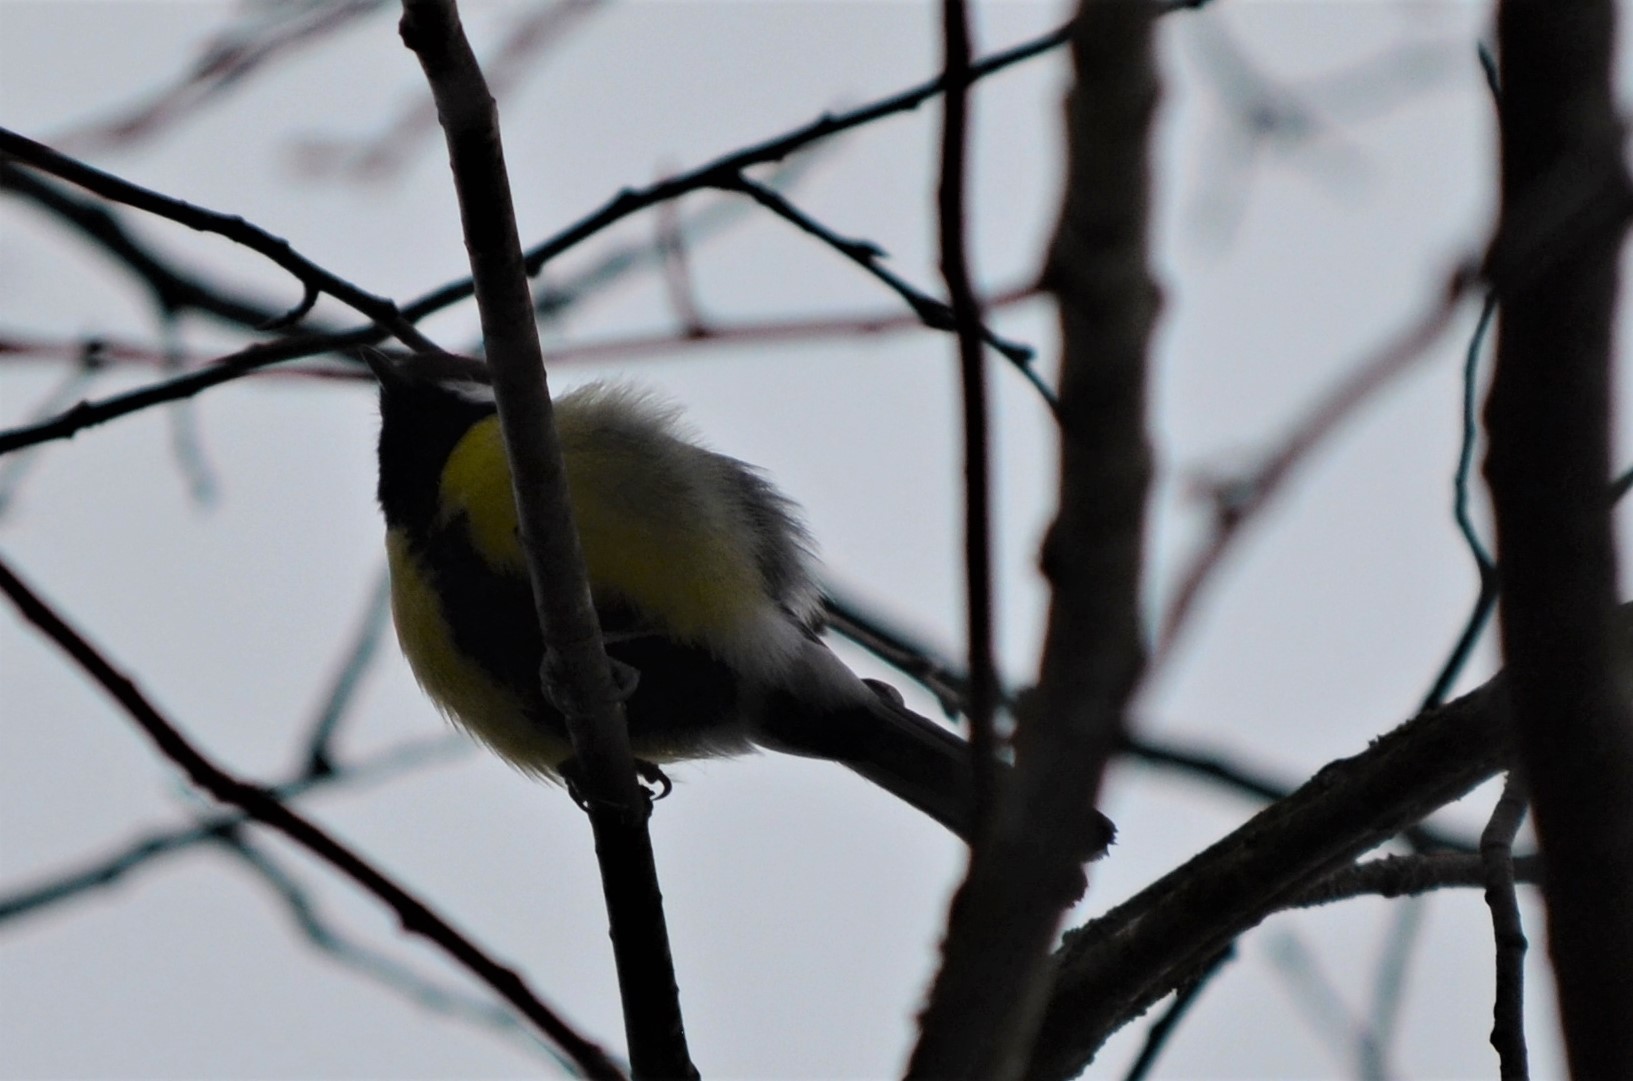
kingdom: Animalia
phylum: Chordata
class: Aves
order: Passeriformes
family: Paridae
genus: Parus
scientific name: Parus major
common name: Great tit
